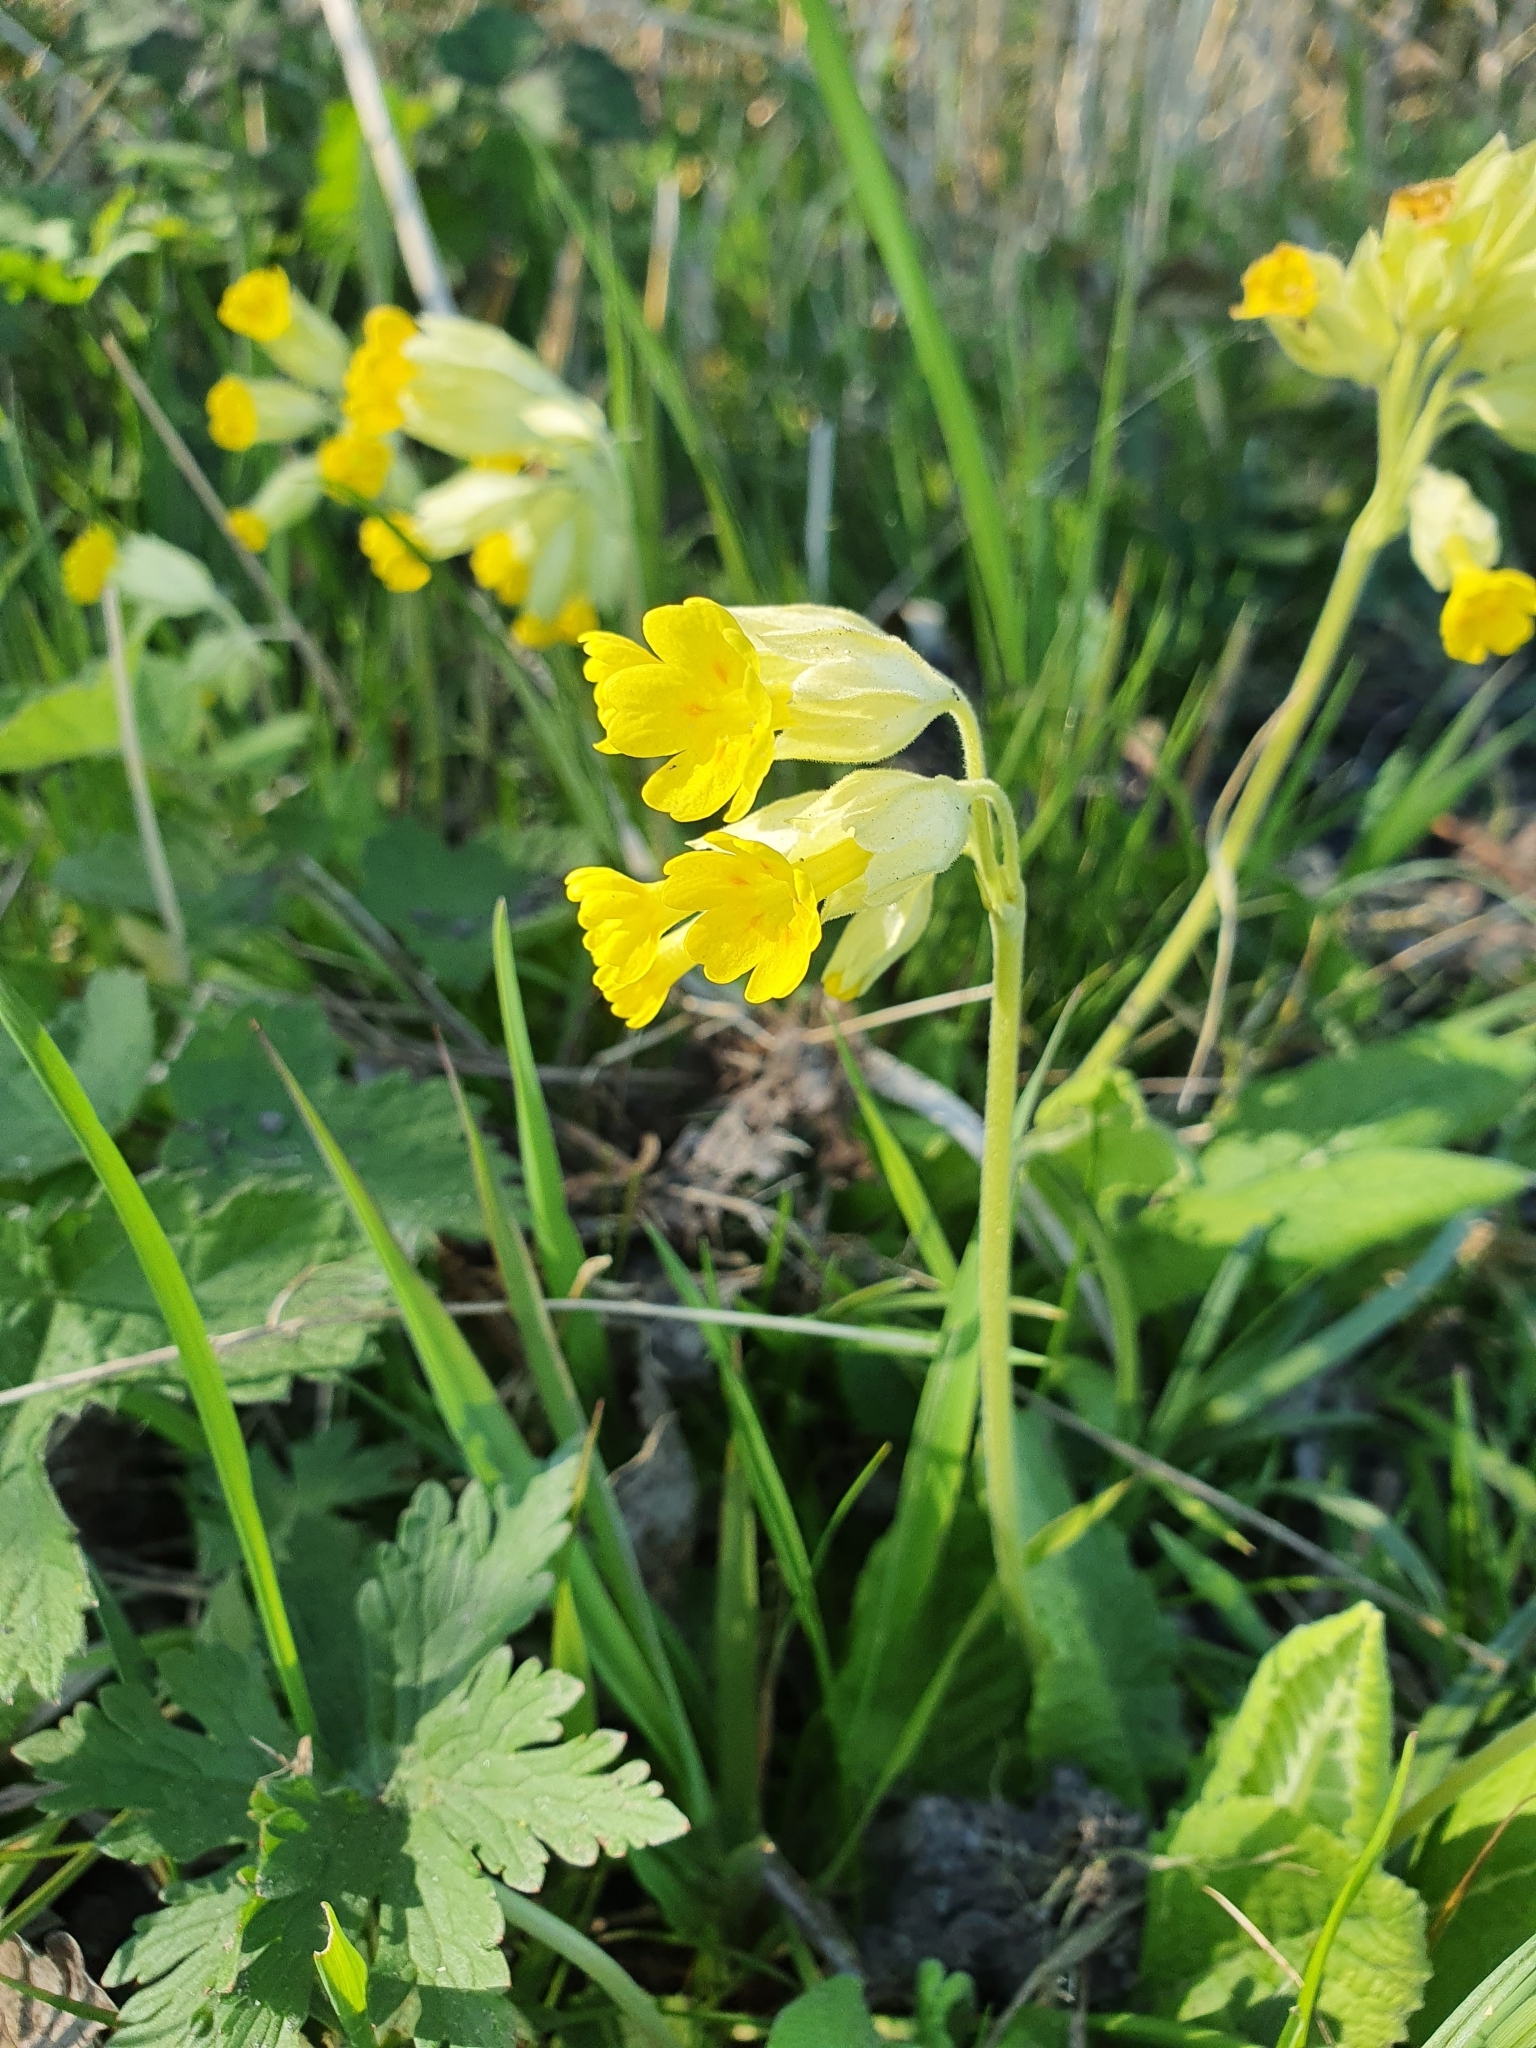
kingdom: Plantae
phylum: Tracheophyta
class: Magnoliopsida
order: Ericales
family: Primulaceae
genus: Primula
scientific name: Primula veris
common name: Cowslip
